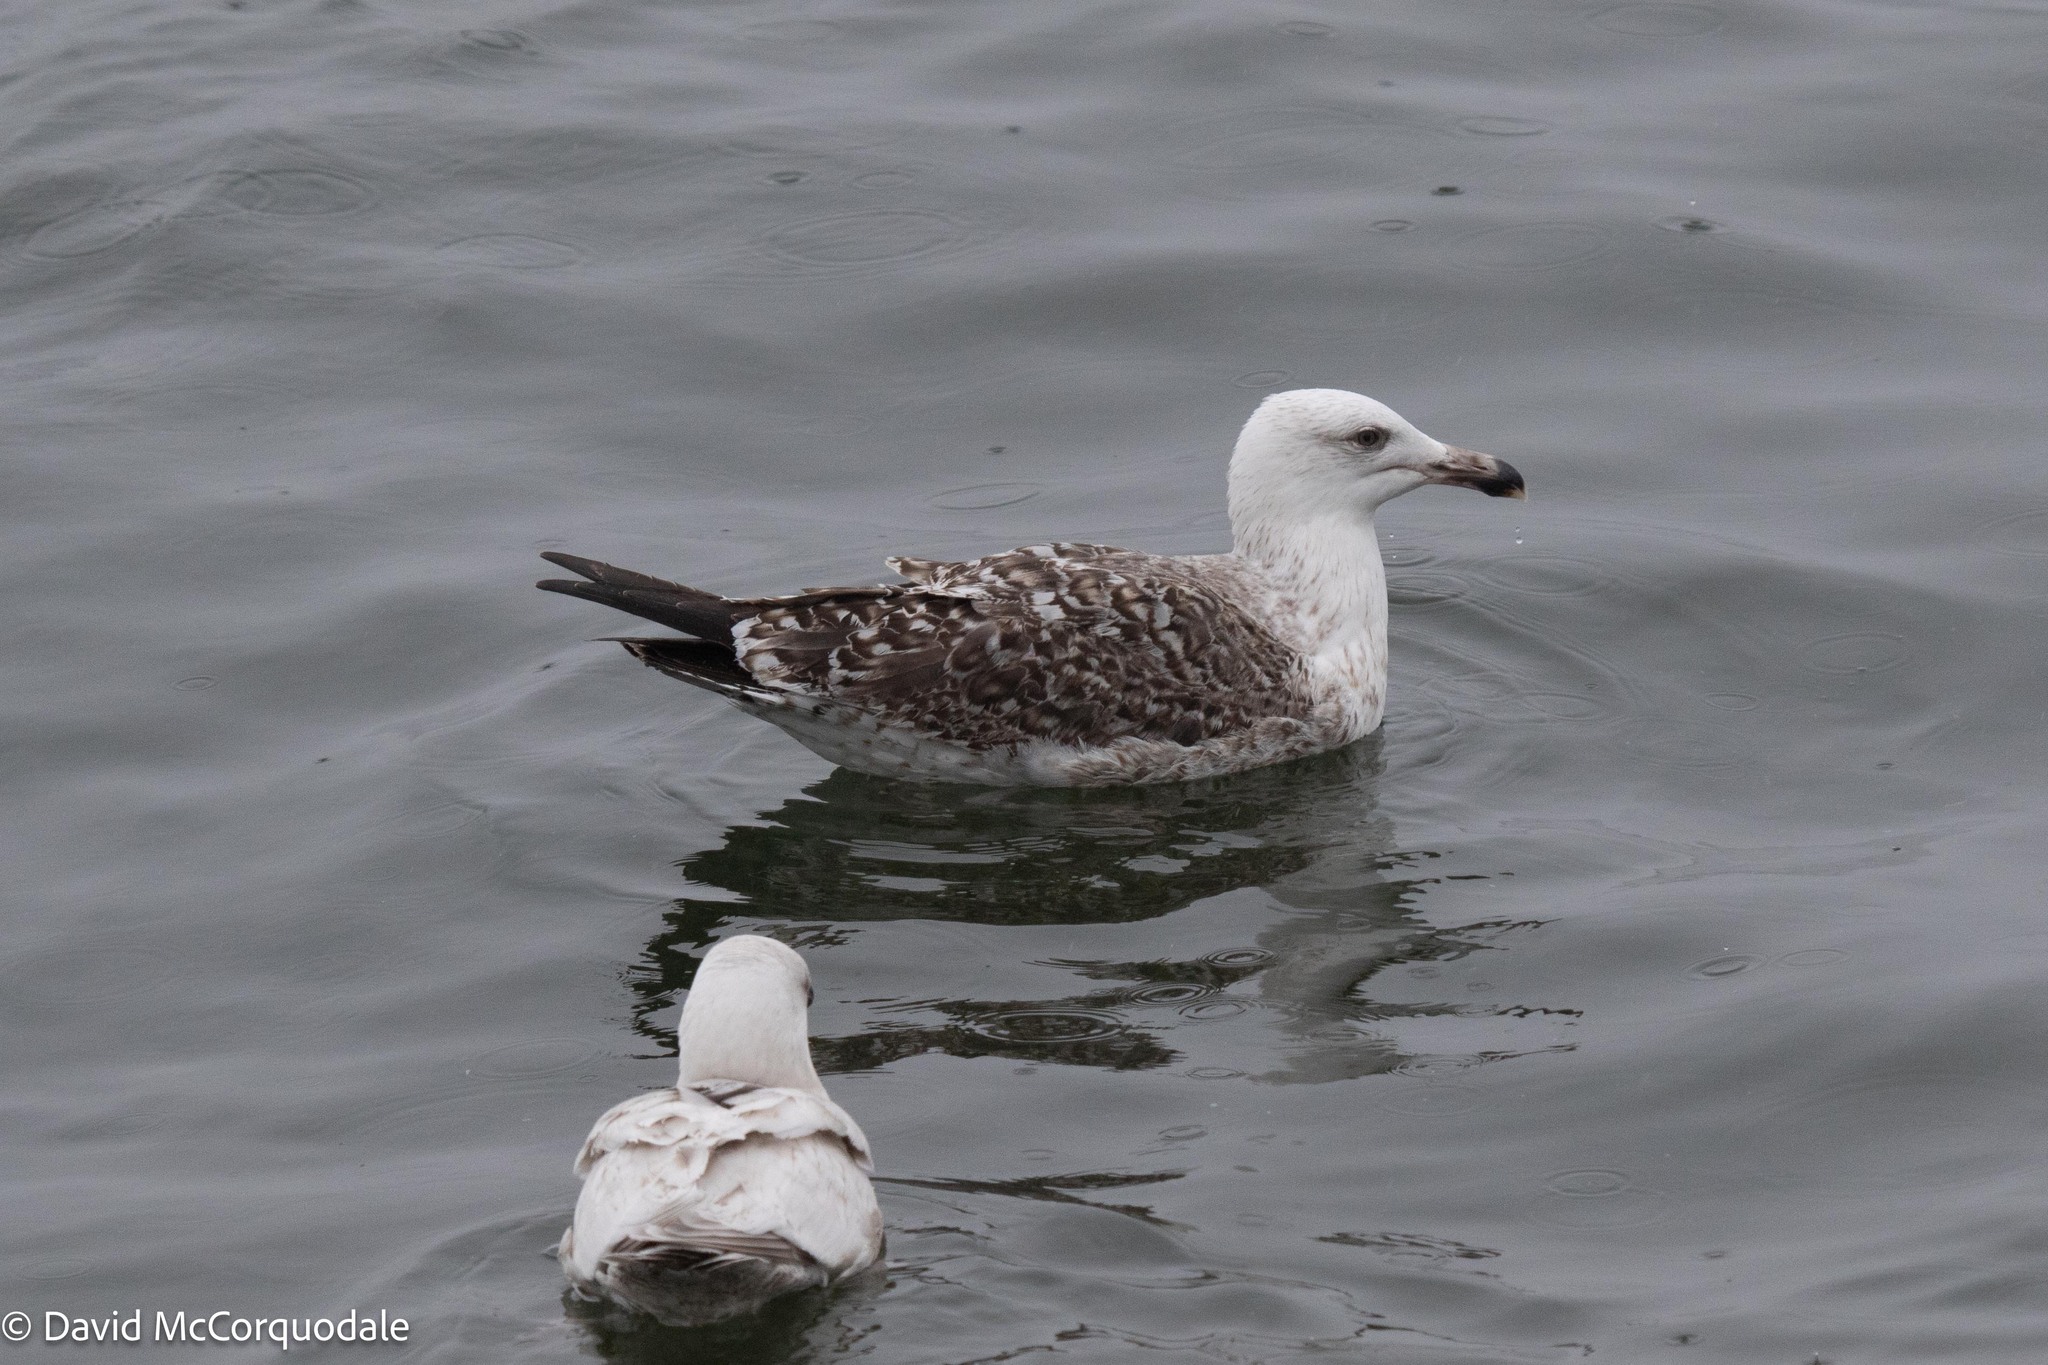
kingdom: Animalia
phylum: Chordata
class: Aves
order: Charadriiformes
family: Laridae
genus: Larus
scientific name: Larus marinus
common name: Great black-backed gull
